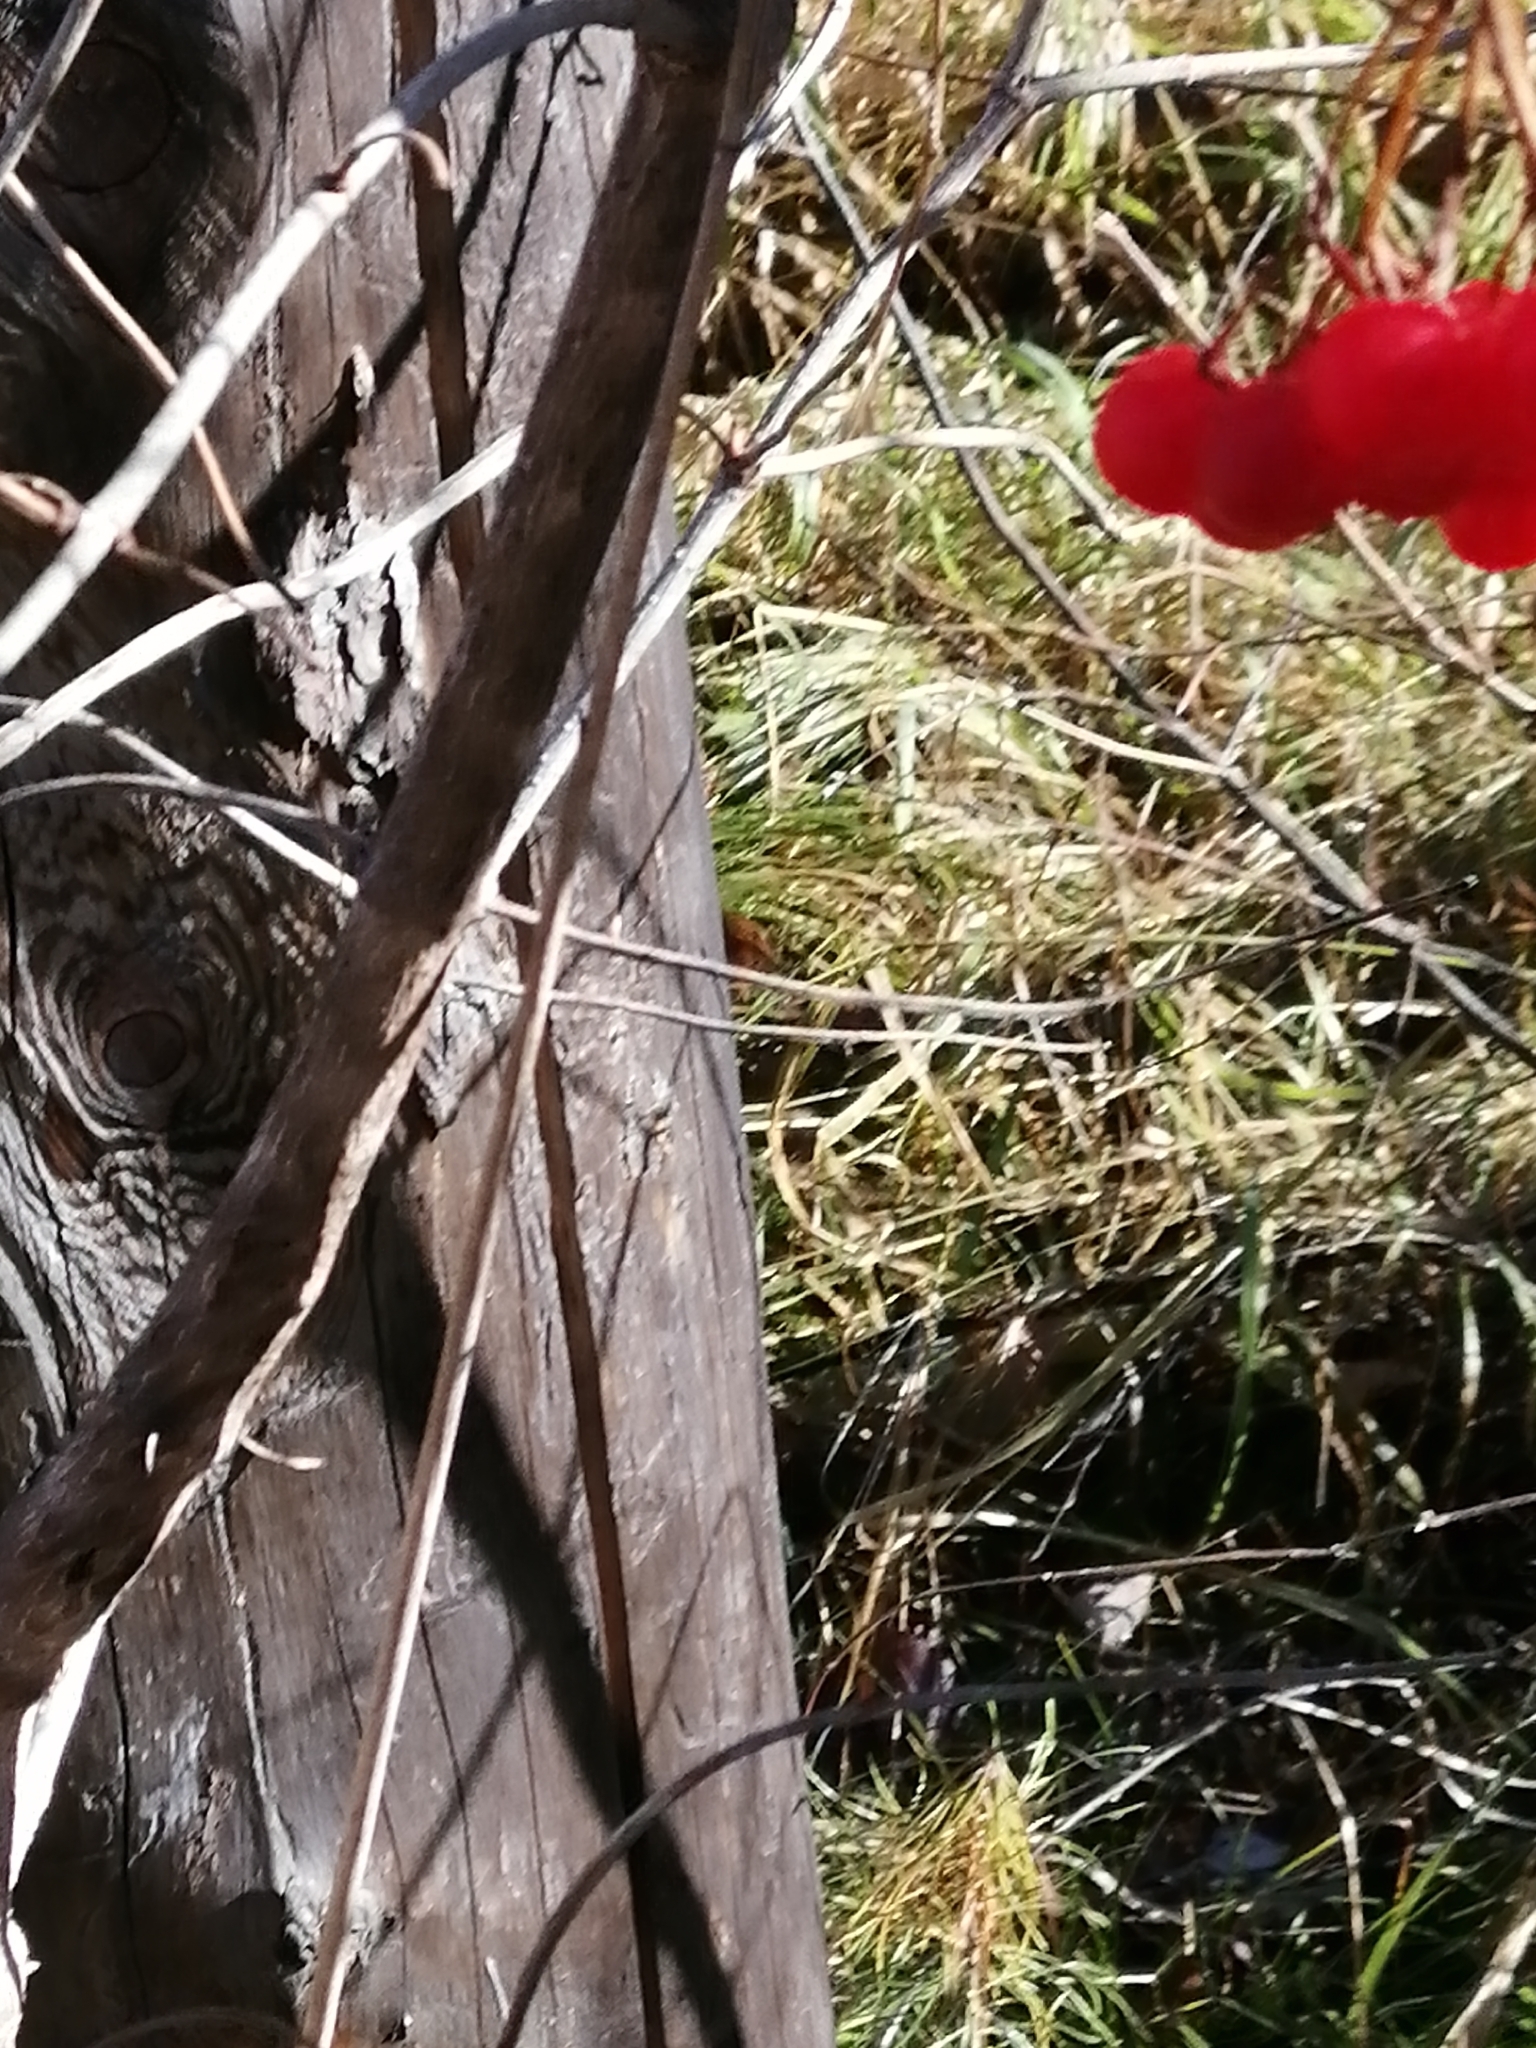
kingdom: Plantae
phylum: Tracheophyta
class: Magnoliopsida
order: Dipsacales
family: Viburnaceae
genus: Viburnum
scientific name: Viburnum opulus
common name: Guelder-rose
